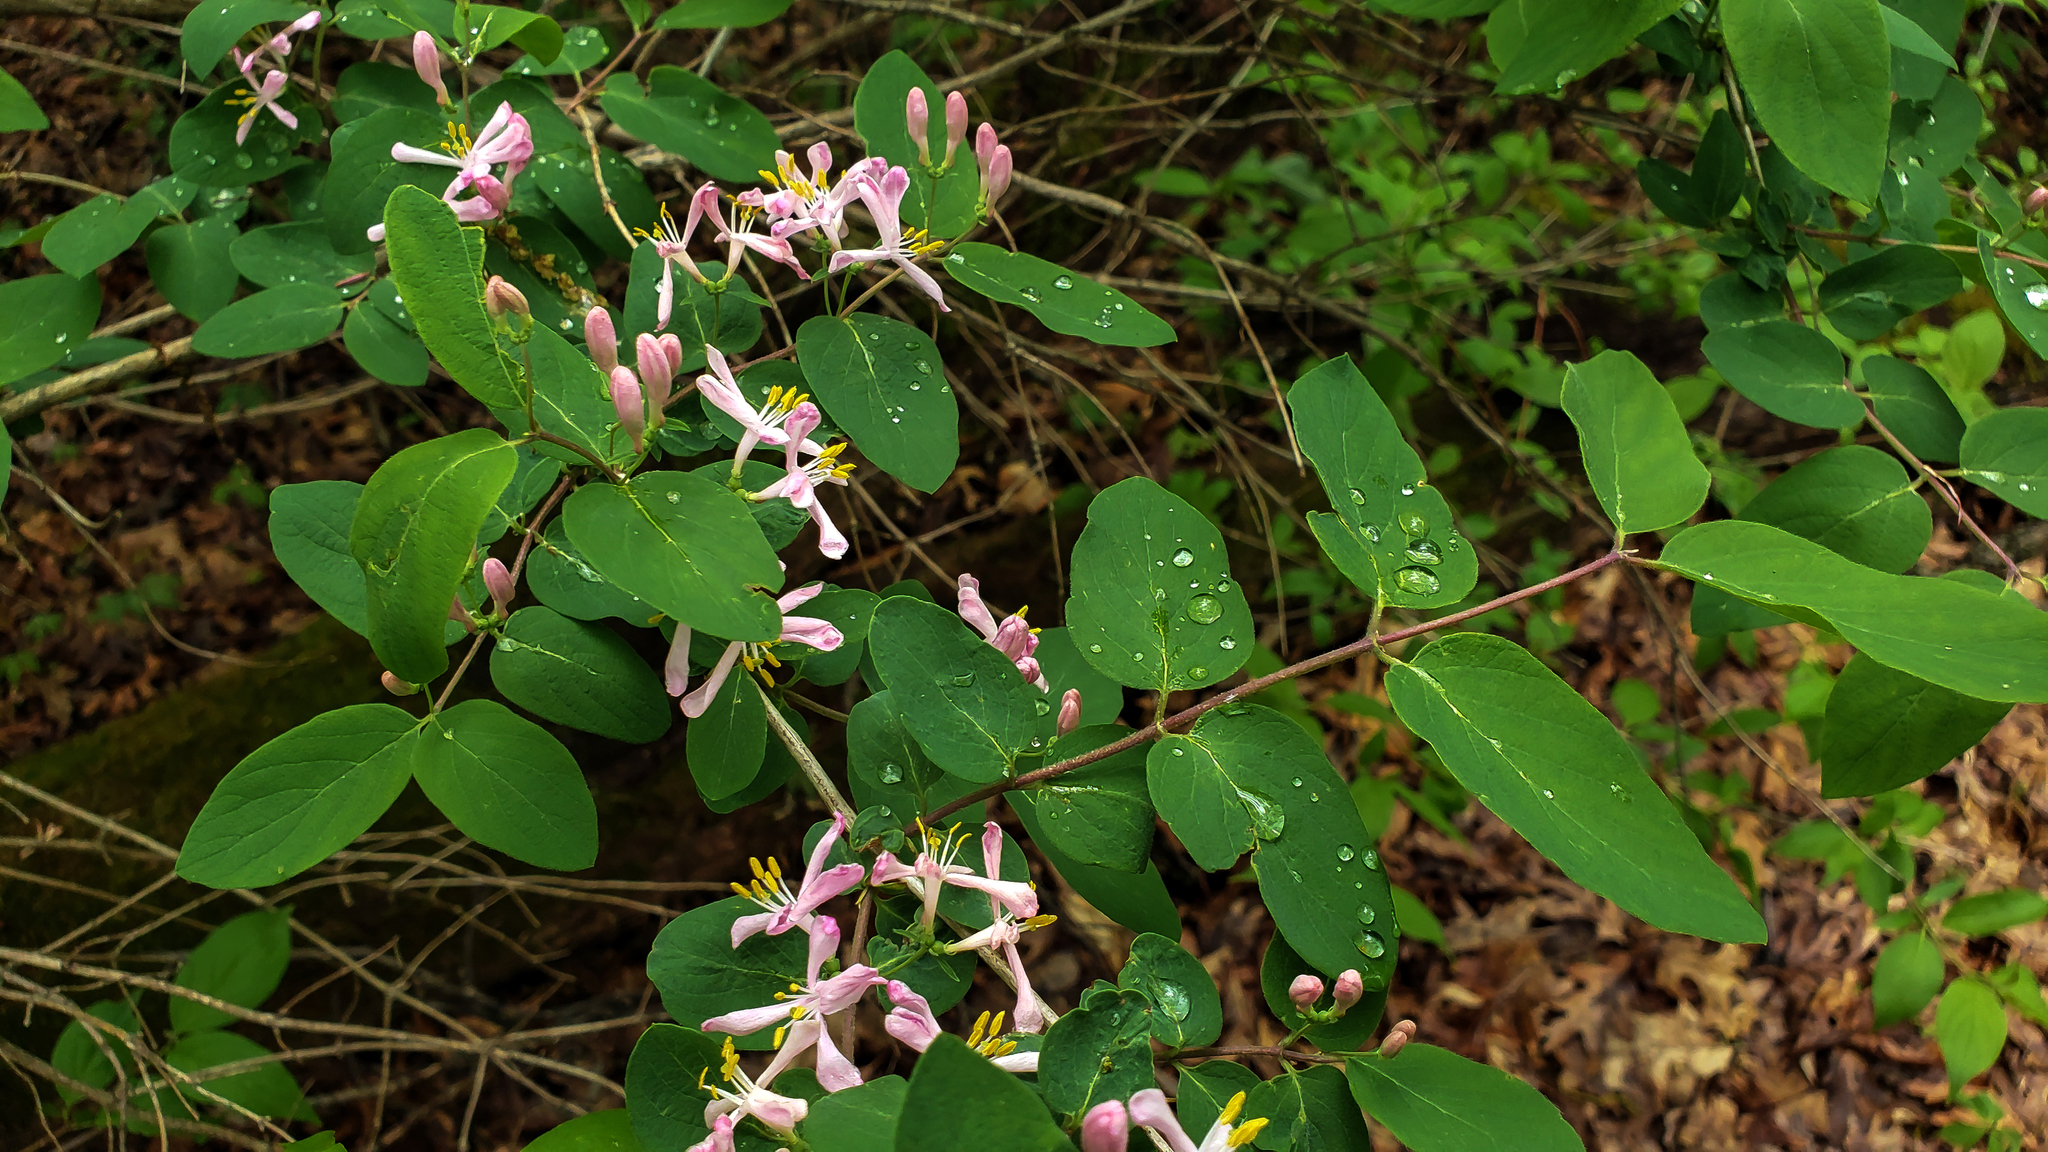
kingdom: Plantae
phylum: Tracheophyta
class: Magnoliopsida
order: Dipsacales
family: Caprifoliaceae
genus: Lonicera
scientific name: Lonicera bella
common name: Bell's honeysuckle
